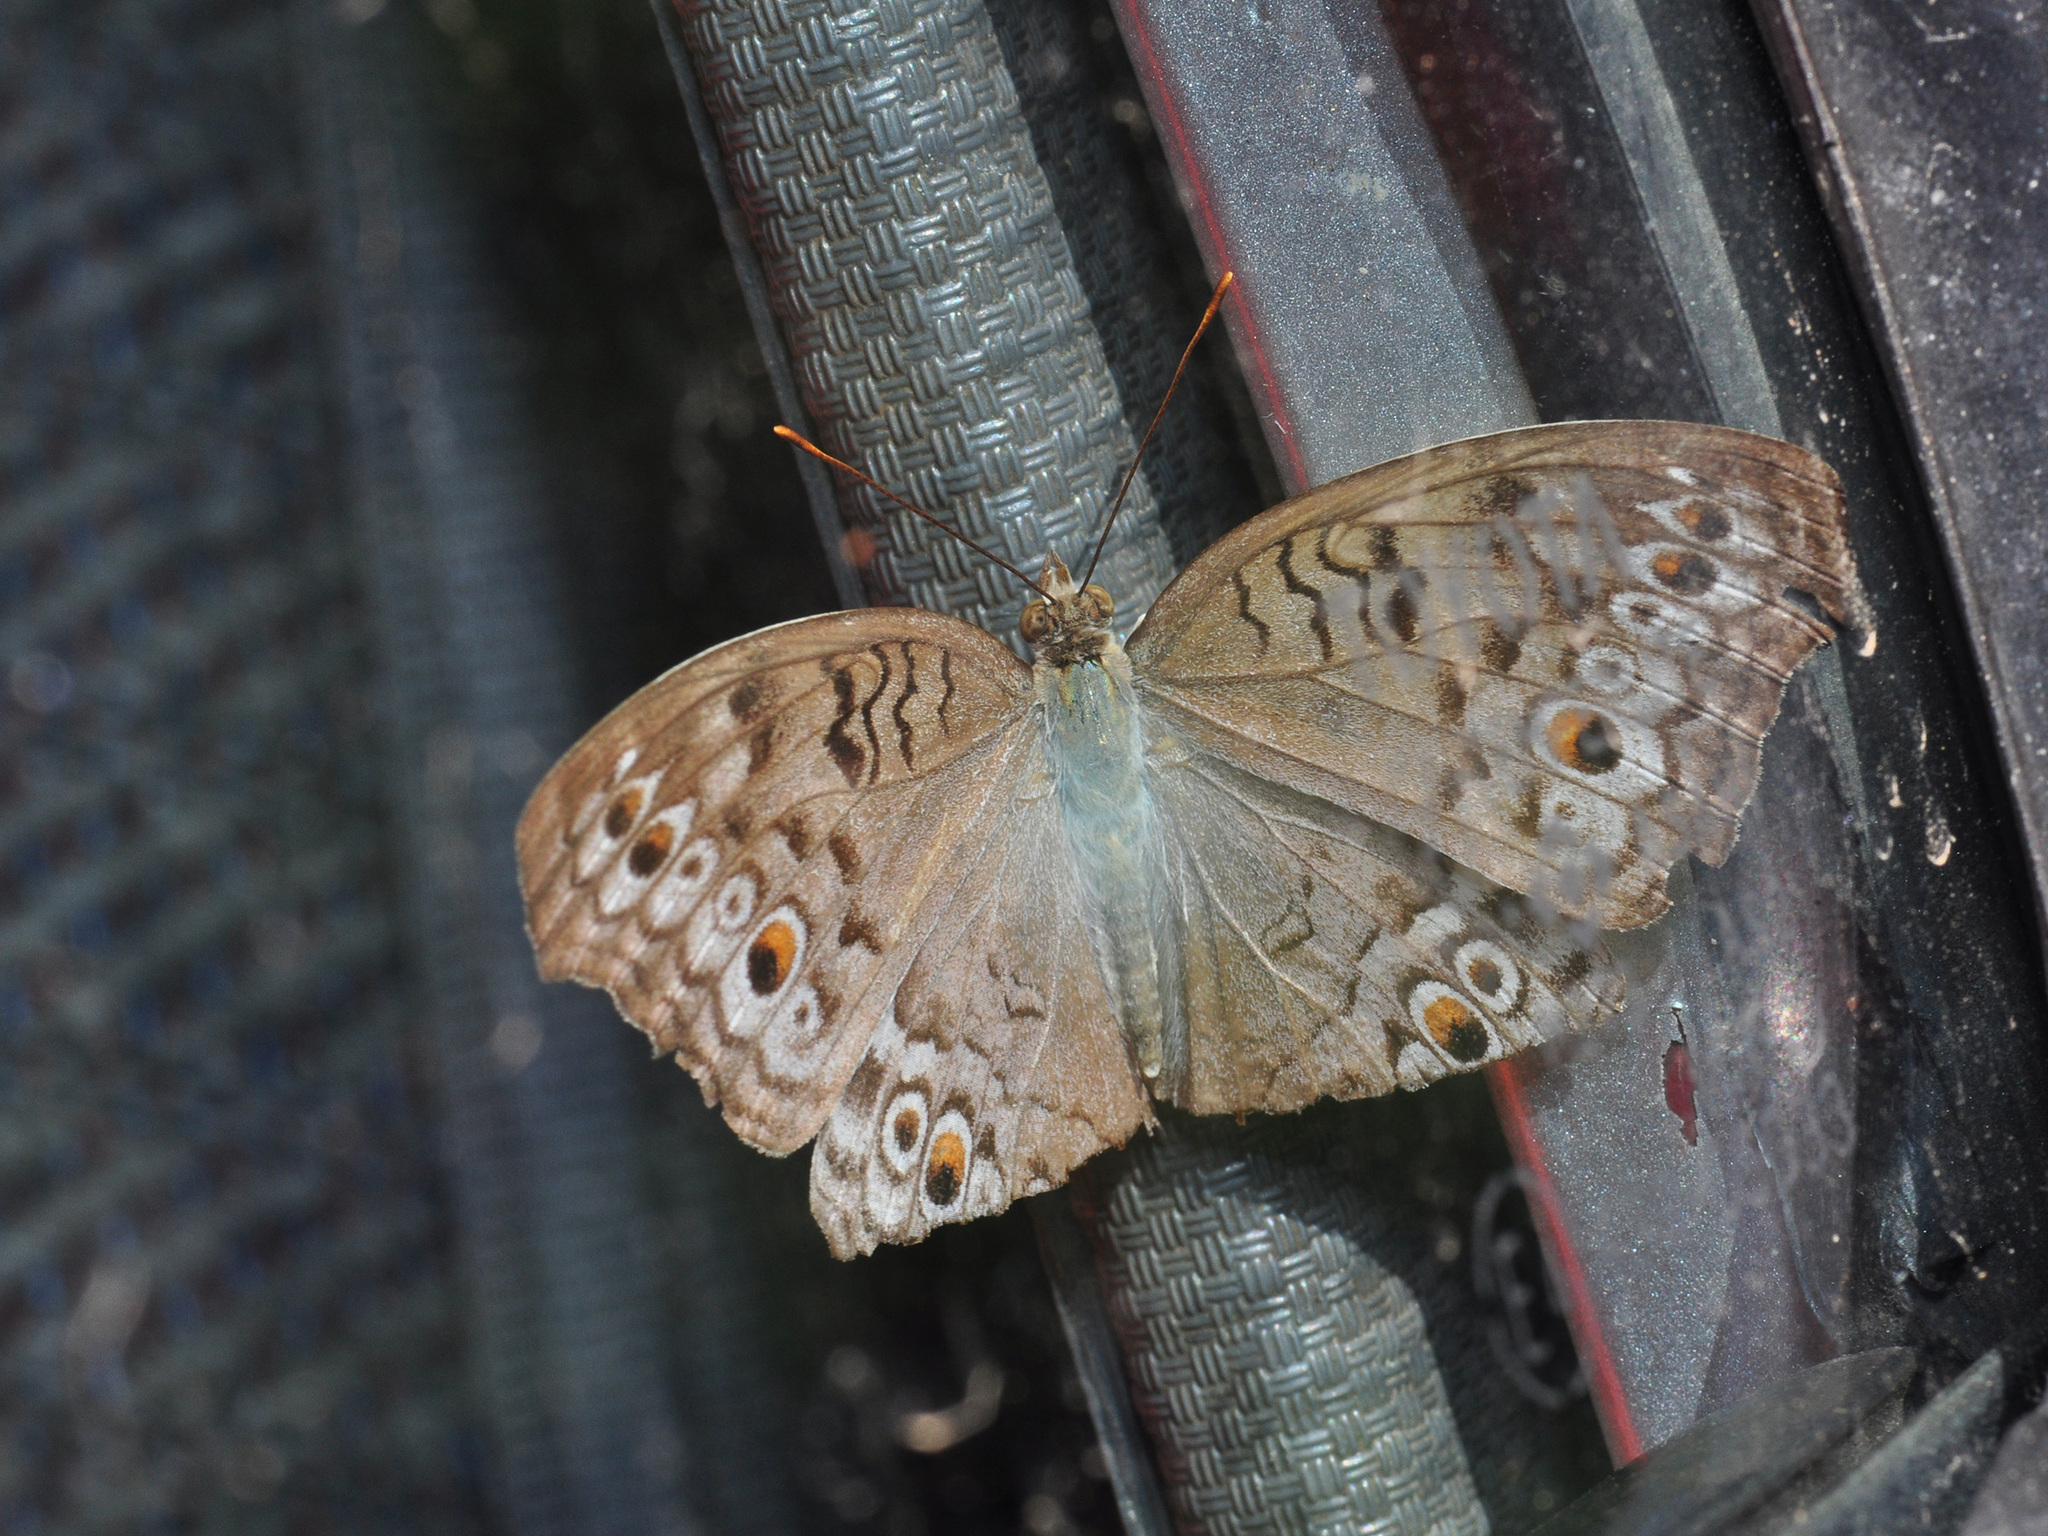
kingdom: Animalia
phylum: Arthropoda
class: Insecta
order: Lepidoptera
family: Nymphalidae
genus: Junonia
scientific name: Junonia atlites
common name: Grey pansy
